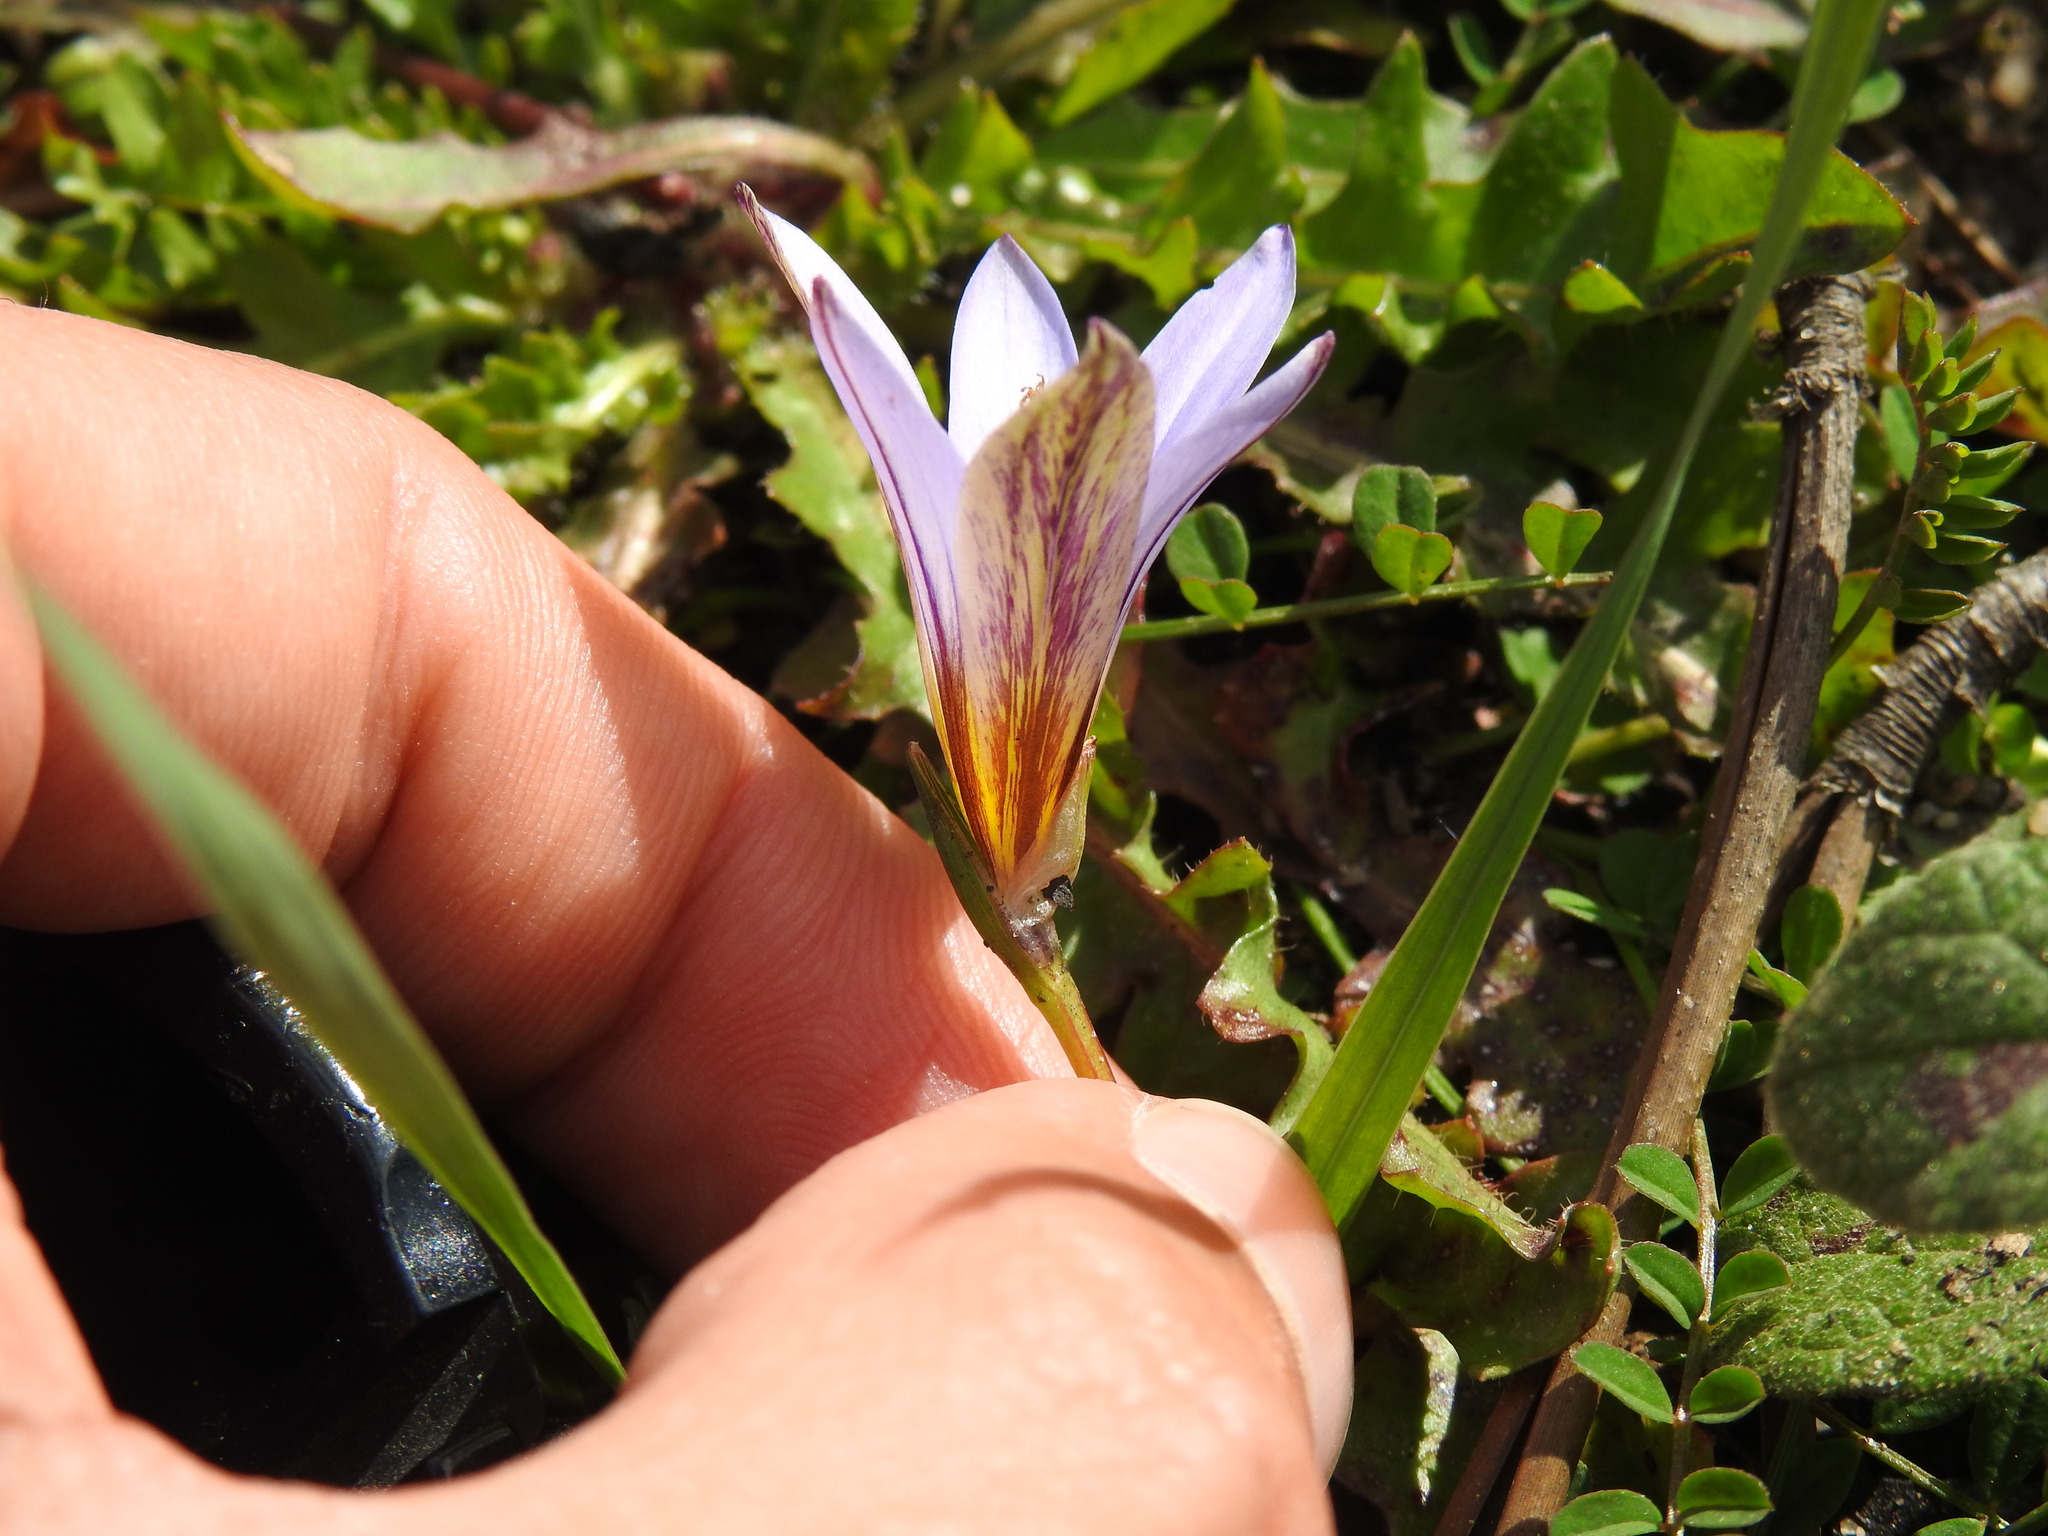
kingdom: Plantae
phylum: Tracheophyta
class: Liliopsida
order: Asparagales
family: Iridaceae
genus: Romulea
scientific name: Romulea bulbocodium
